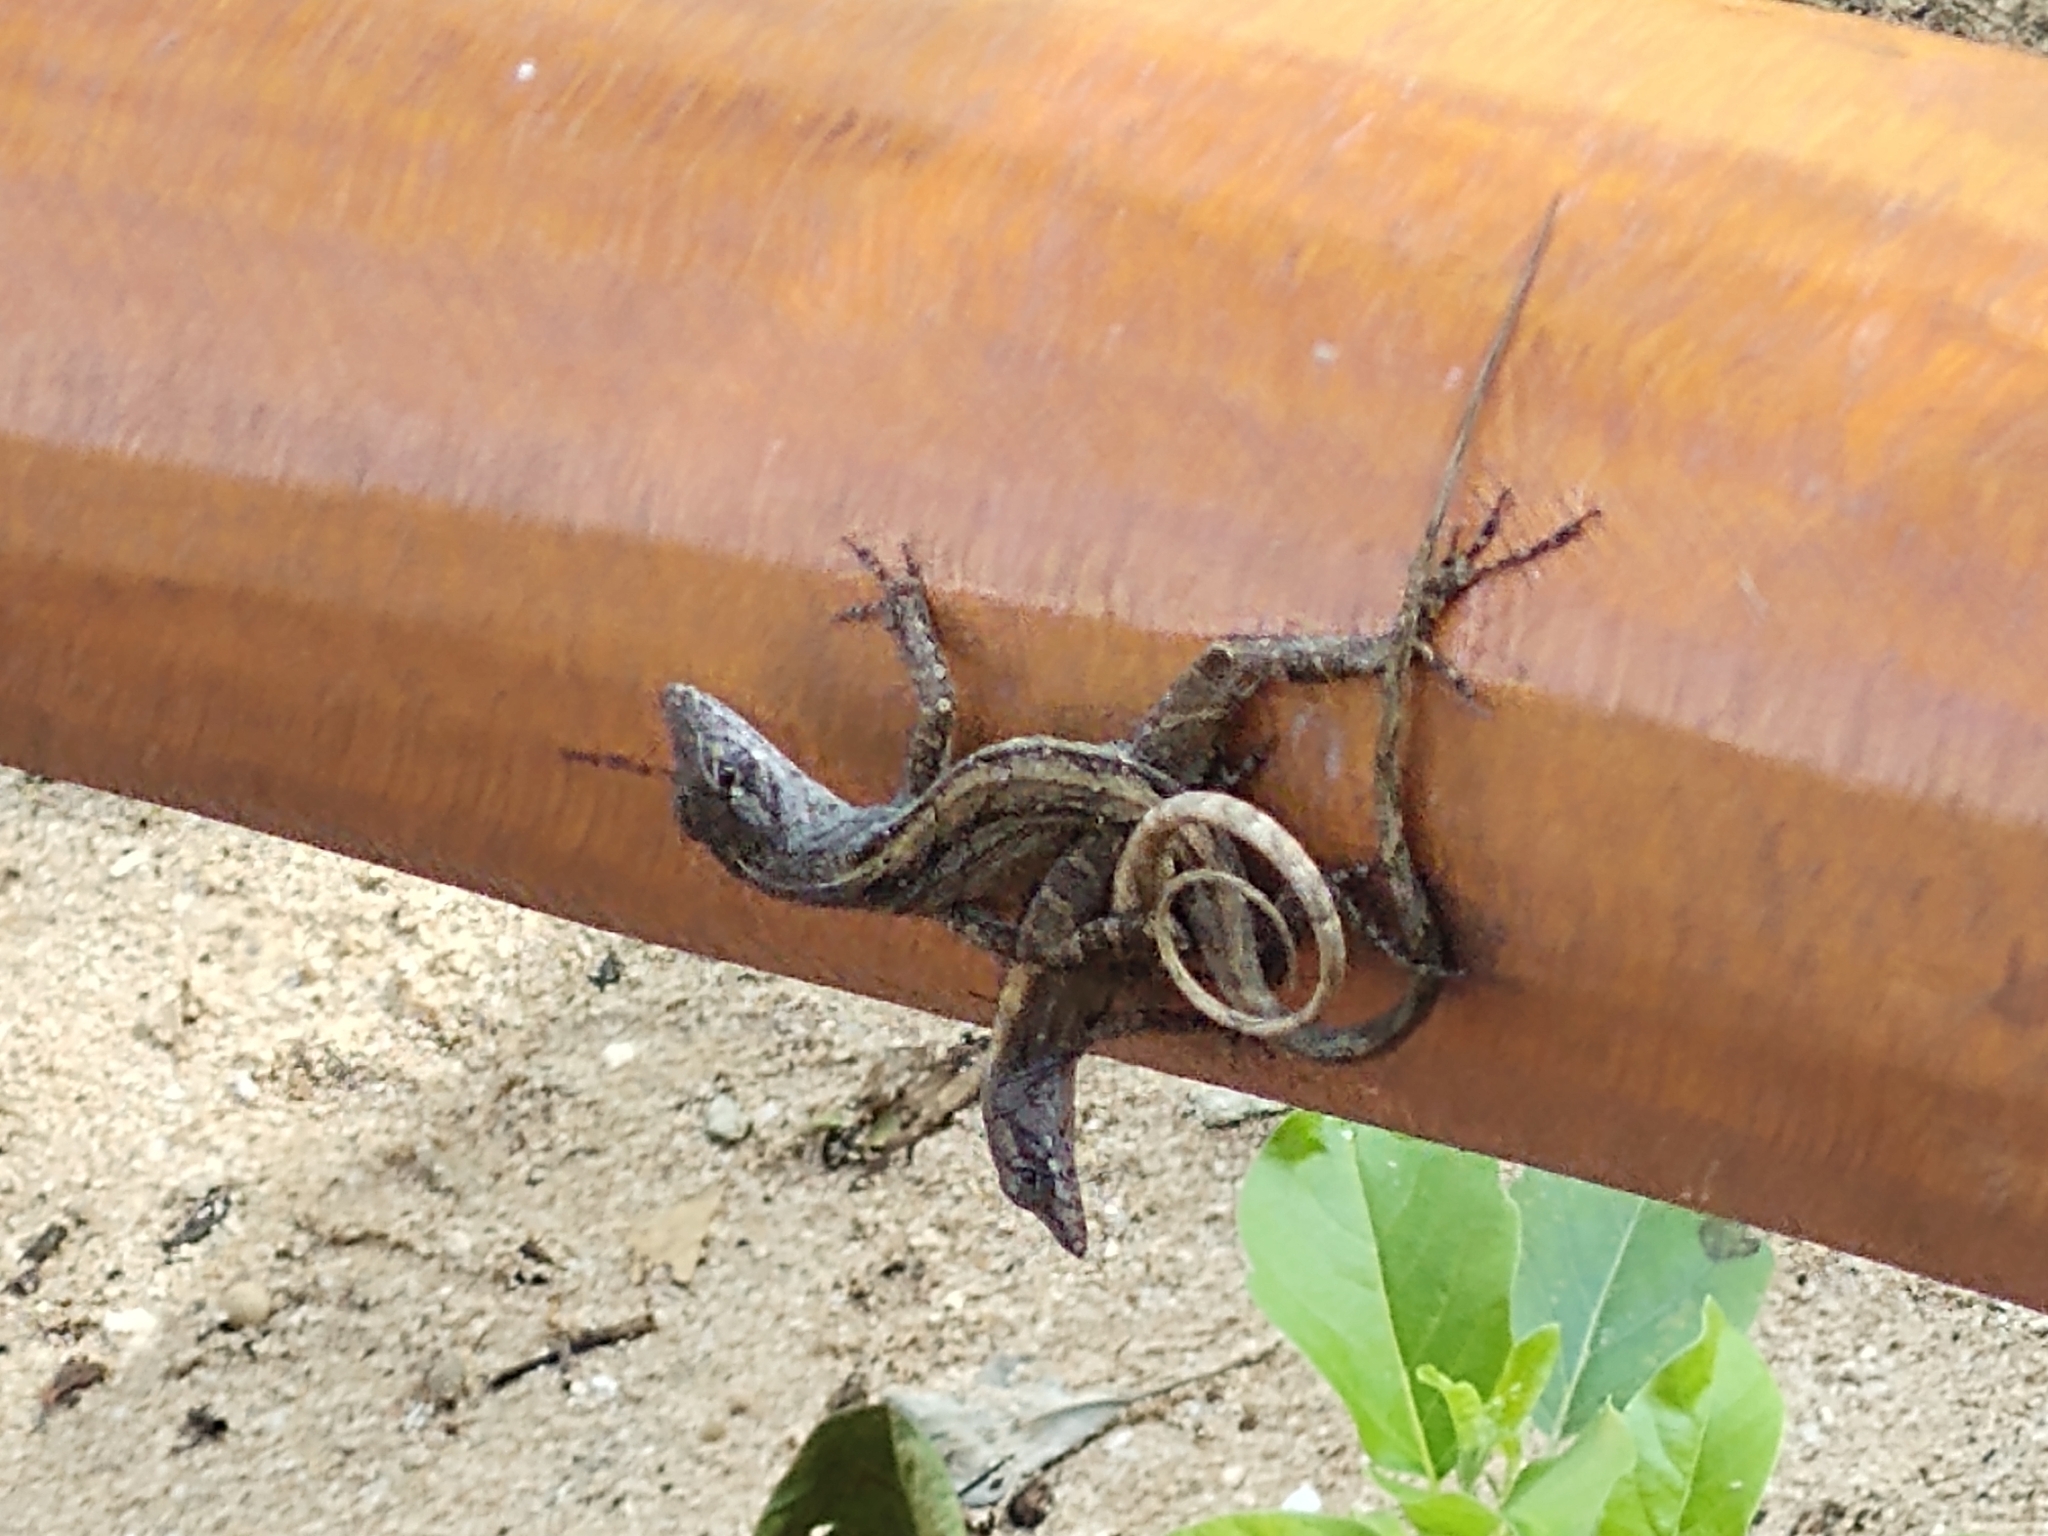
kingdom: Animalia
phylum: Chordata
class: Squamata
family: Dactyloidae
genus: Anolis
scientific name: Anolis sagrei
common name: Brown anole
